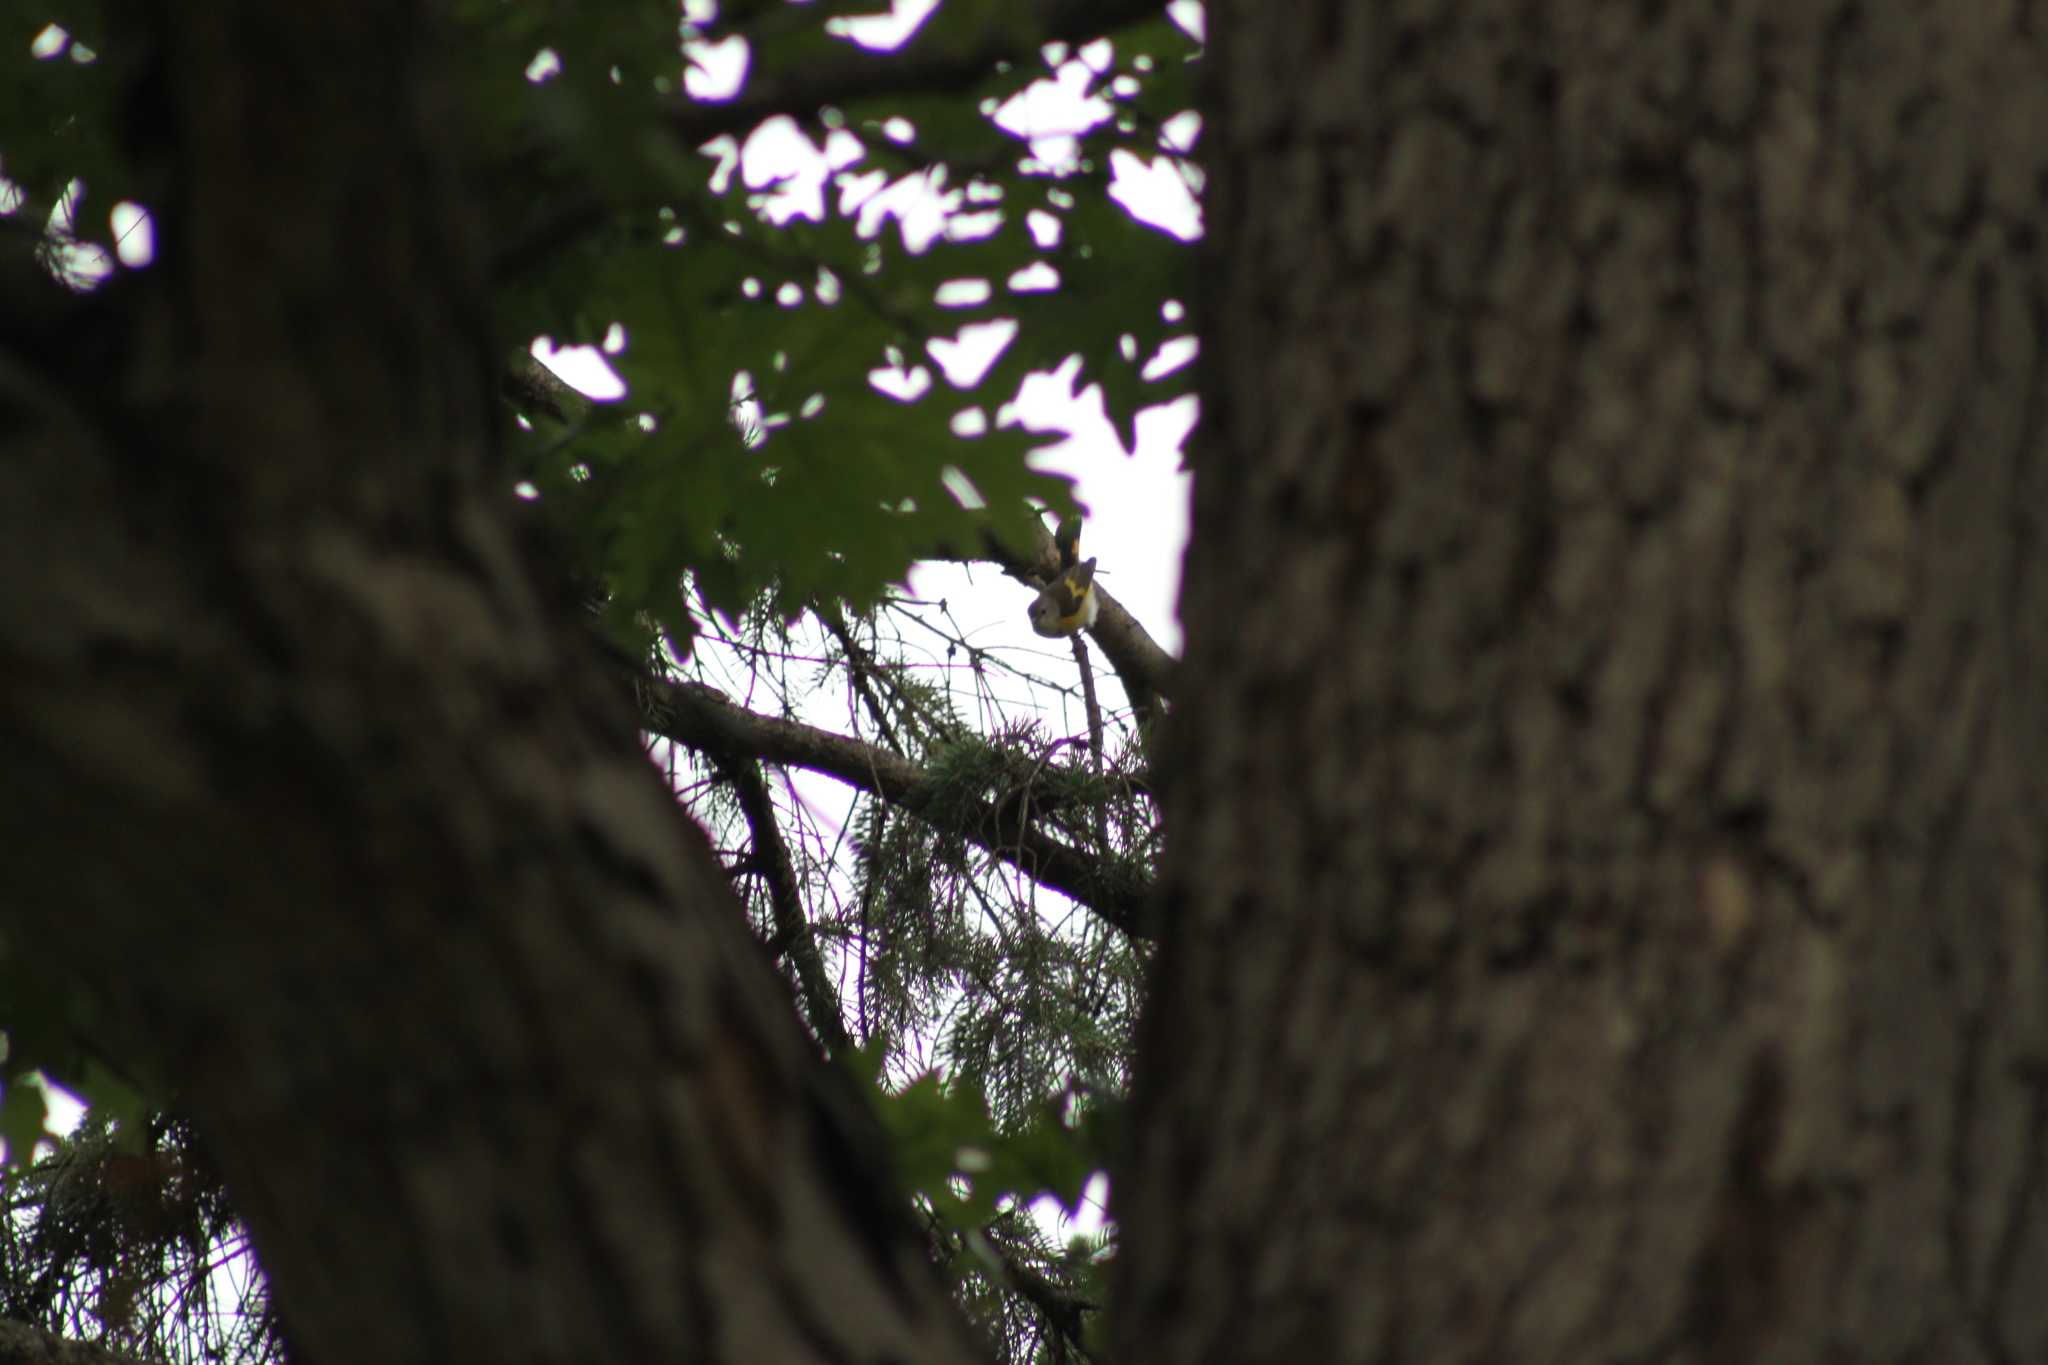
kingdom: Animalia
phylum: Chordata
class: Aves
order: Passeriformes
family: Parulidae
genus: Setophaga
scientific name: Setophaga ruticilla
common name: American redstart
